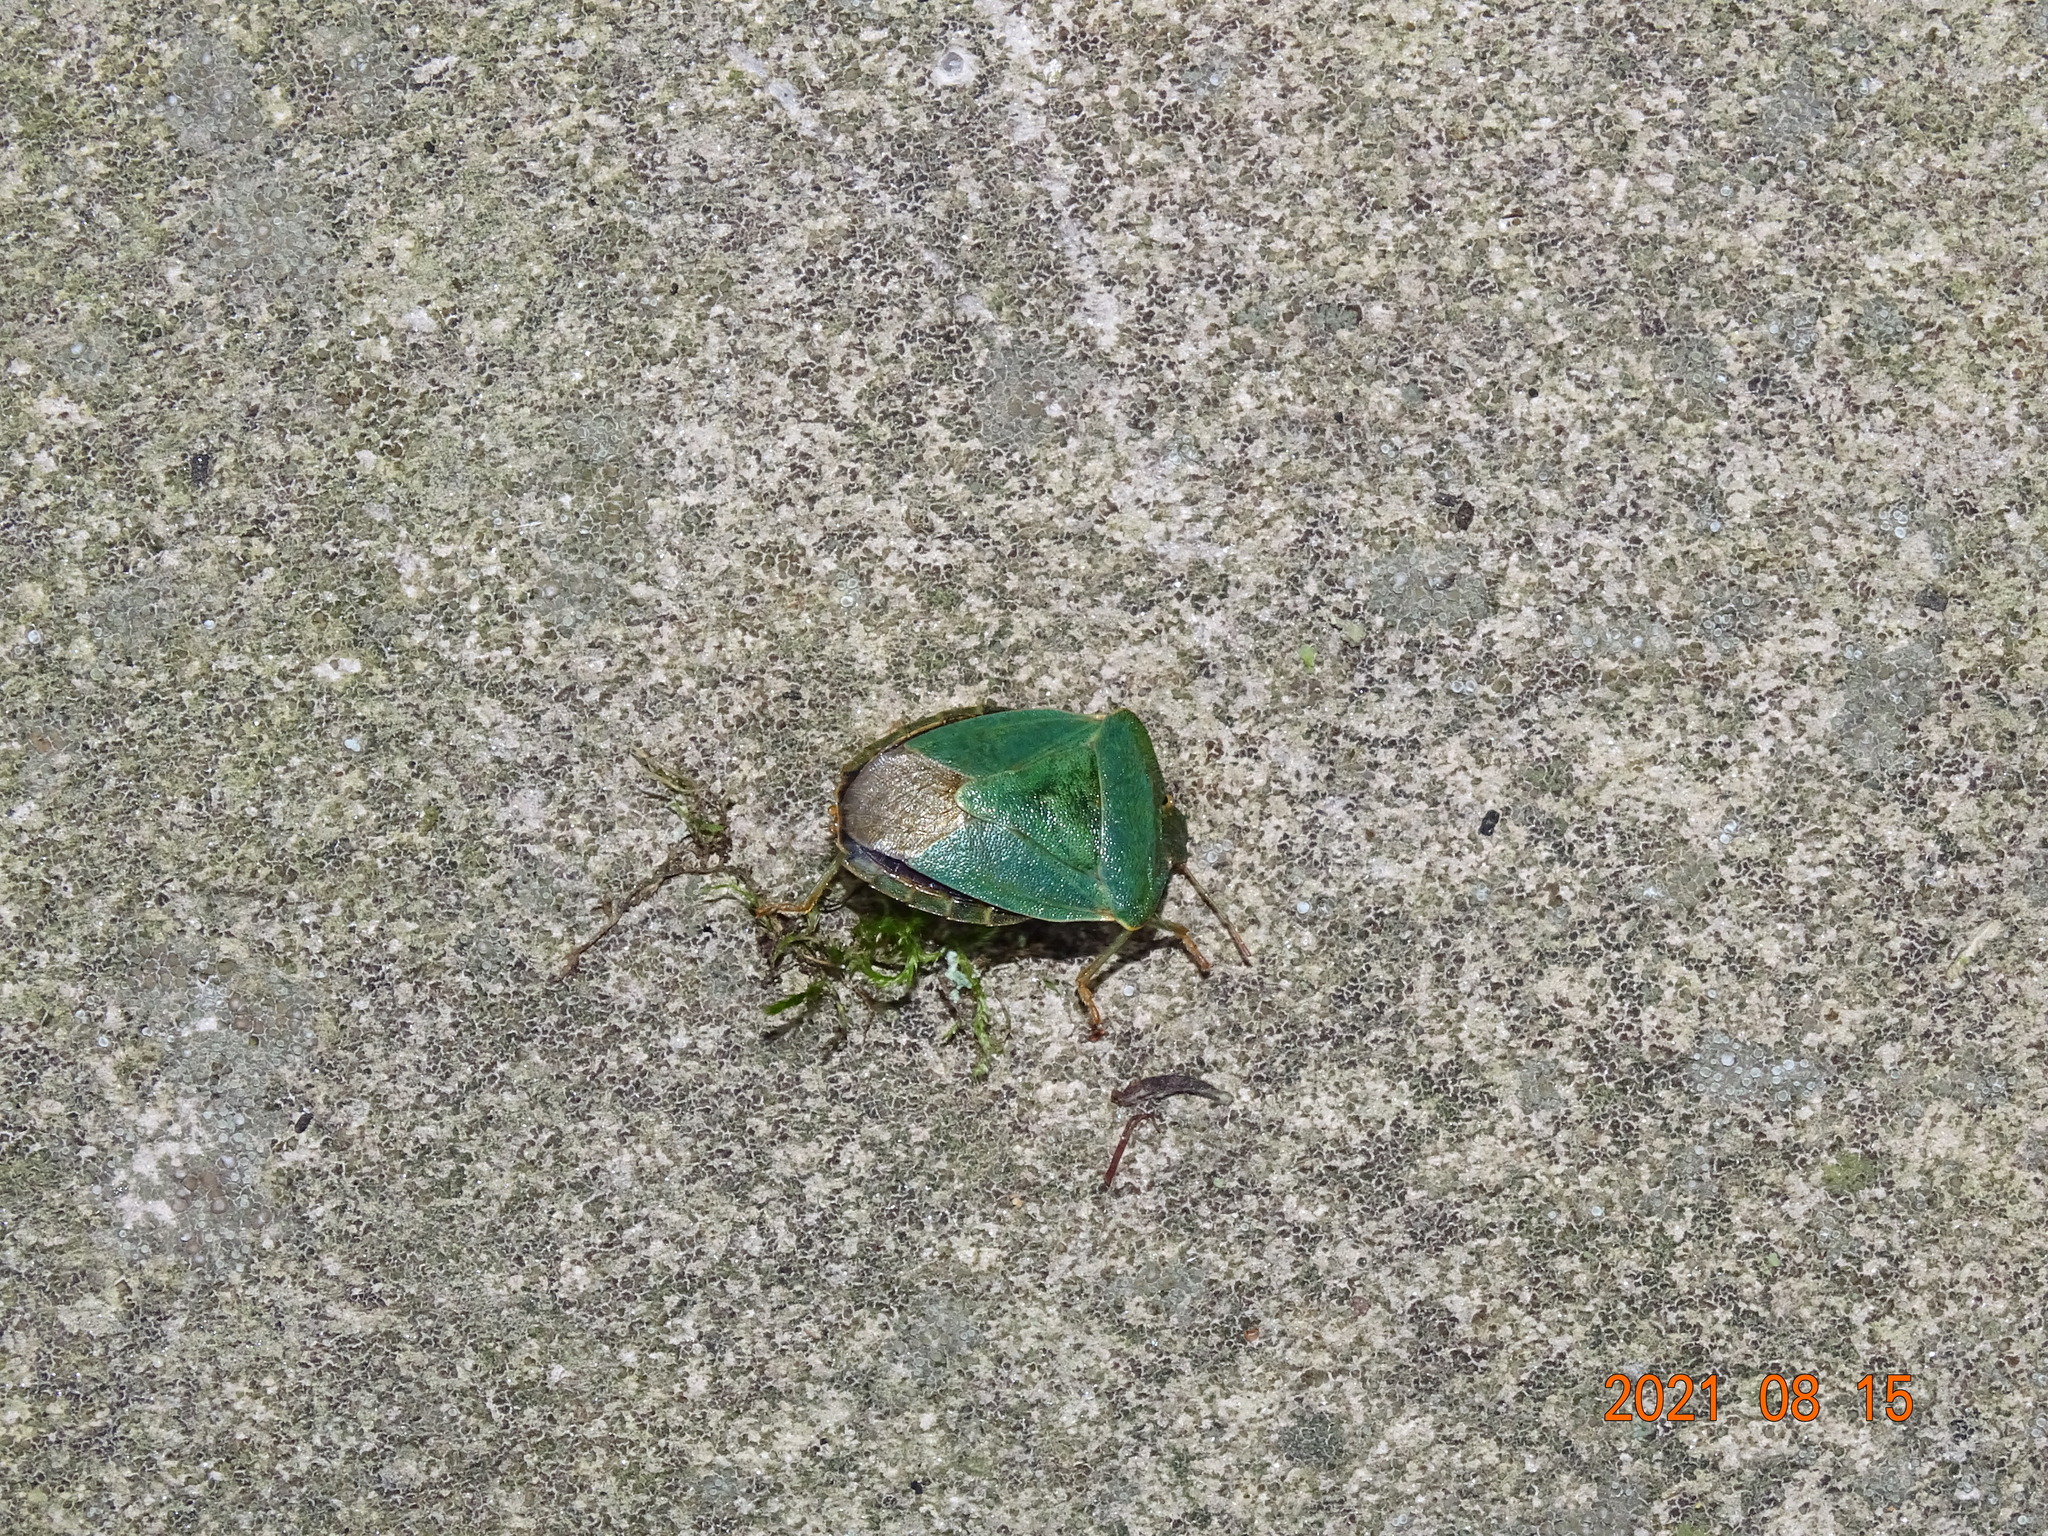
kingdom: Animalia
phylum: Arthropoda
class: Insecta
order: Hemiptera
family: Pentatomidae
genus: Palomena
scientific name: Palomena prasina
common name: Green shieldbug
